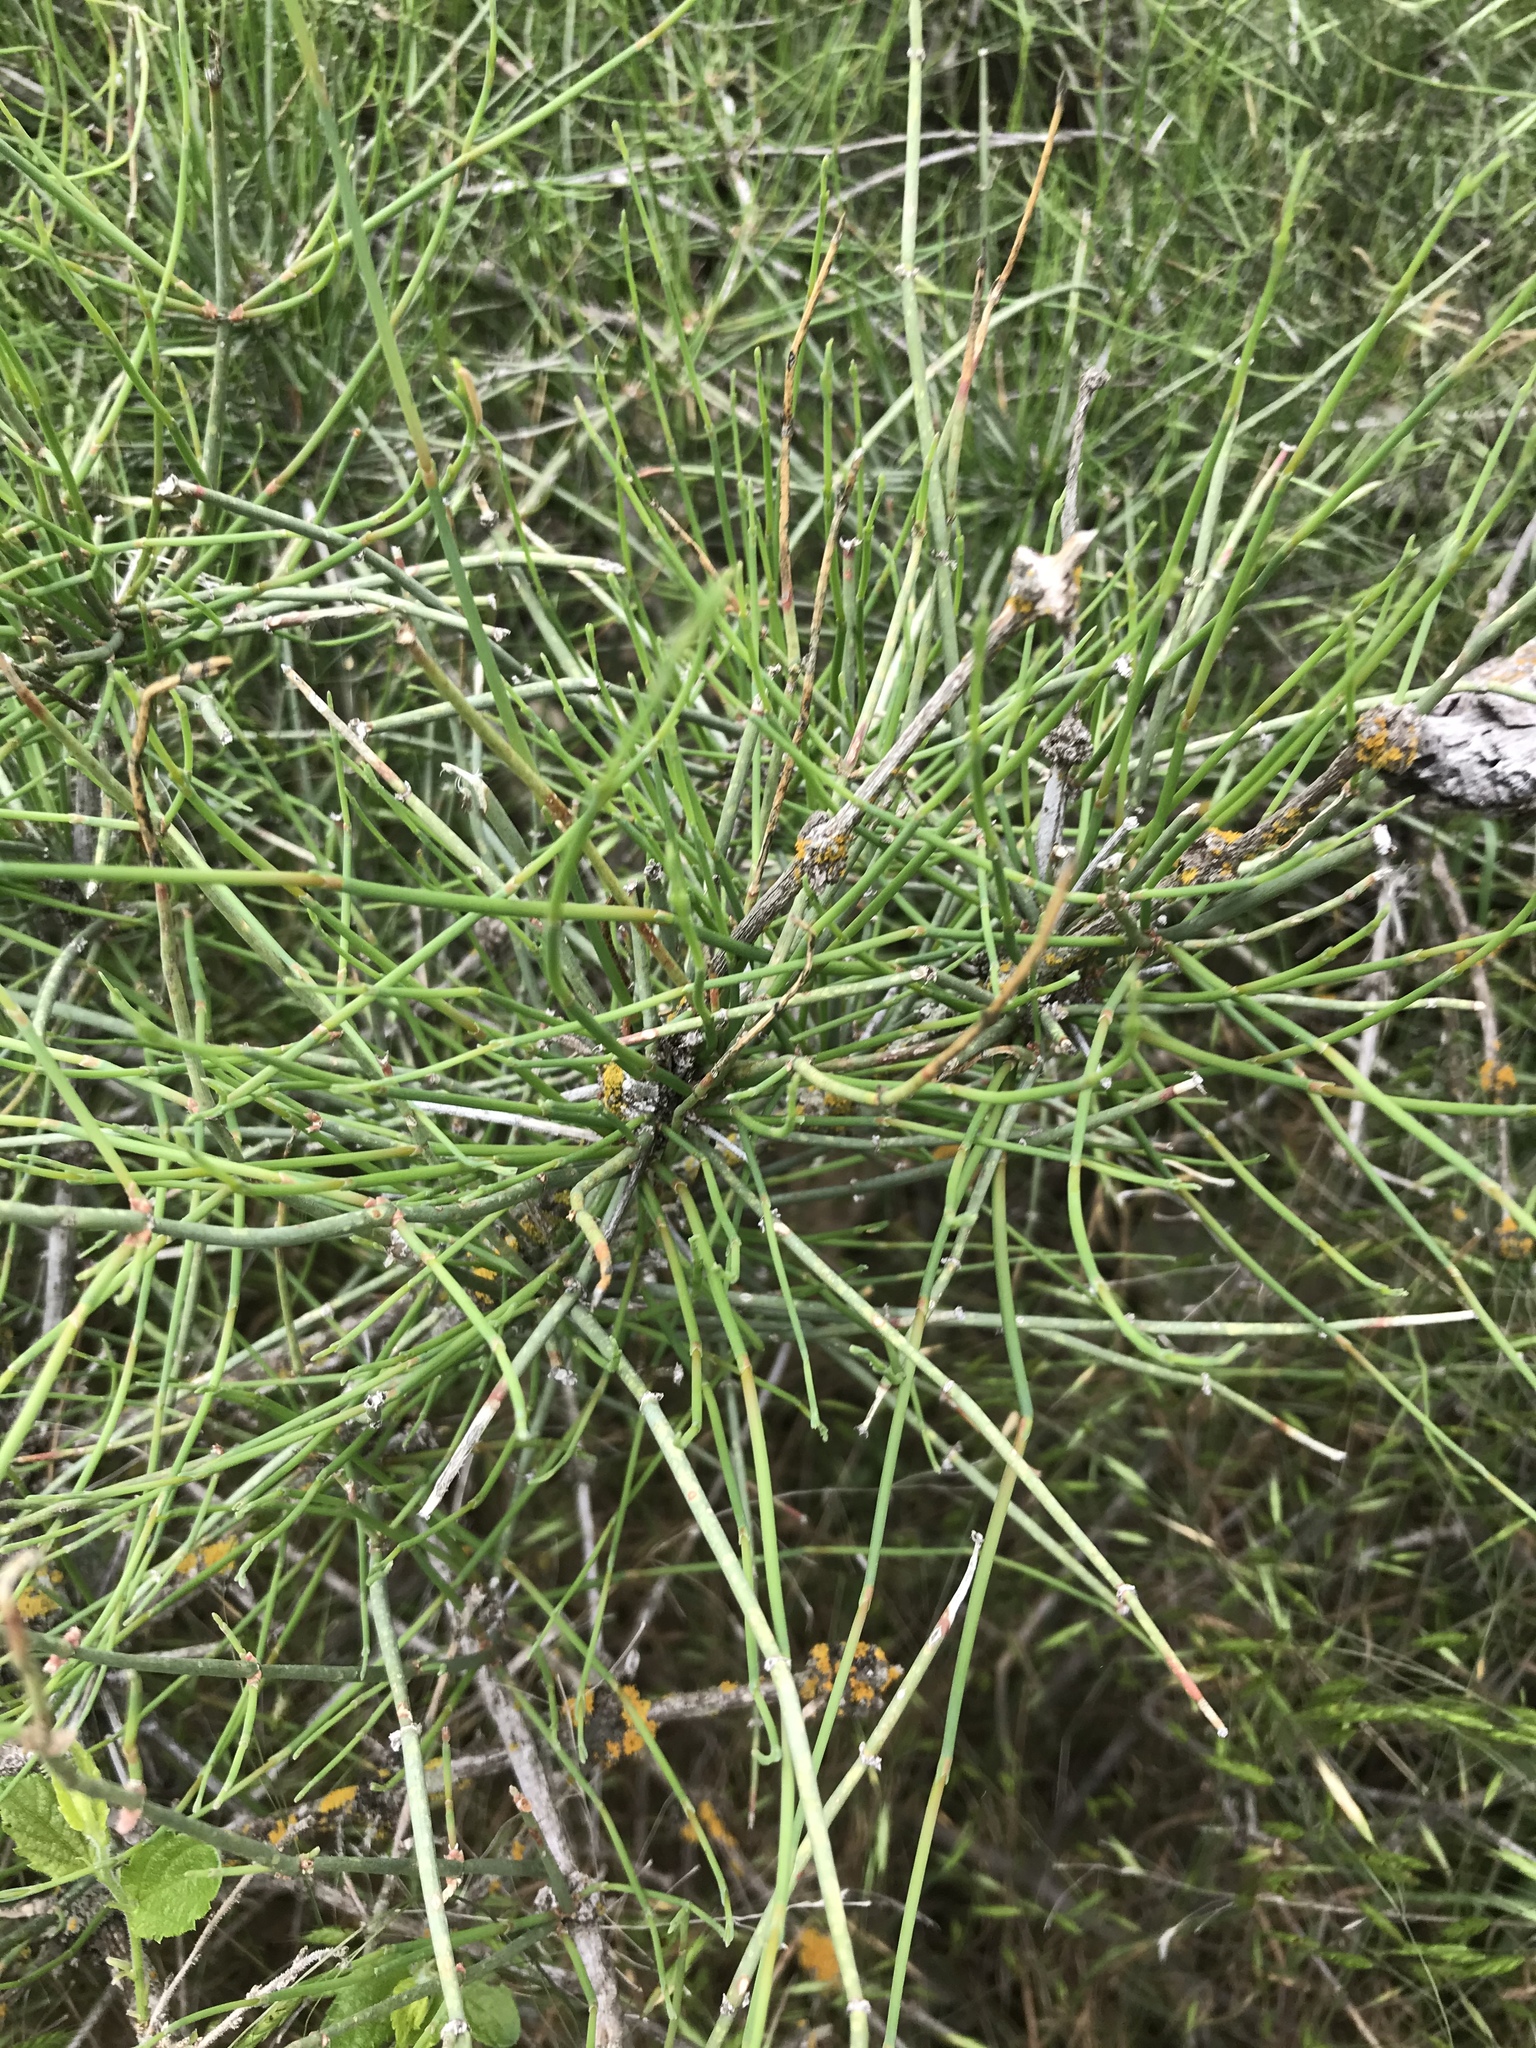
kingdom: Plantae
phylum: Tracheophyta
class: Gnetopsida
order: Ephedrales
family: Ephedraceae
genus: Ephedra
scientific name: Ephedra antisyphilitica
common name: Clipweed
